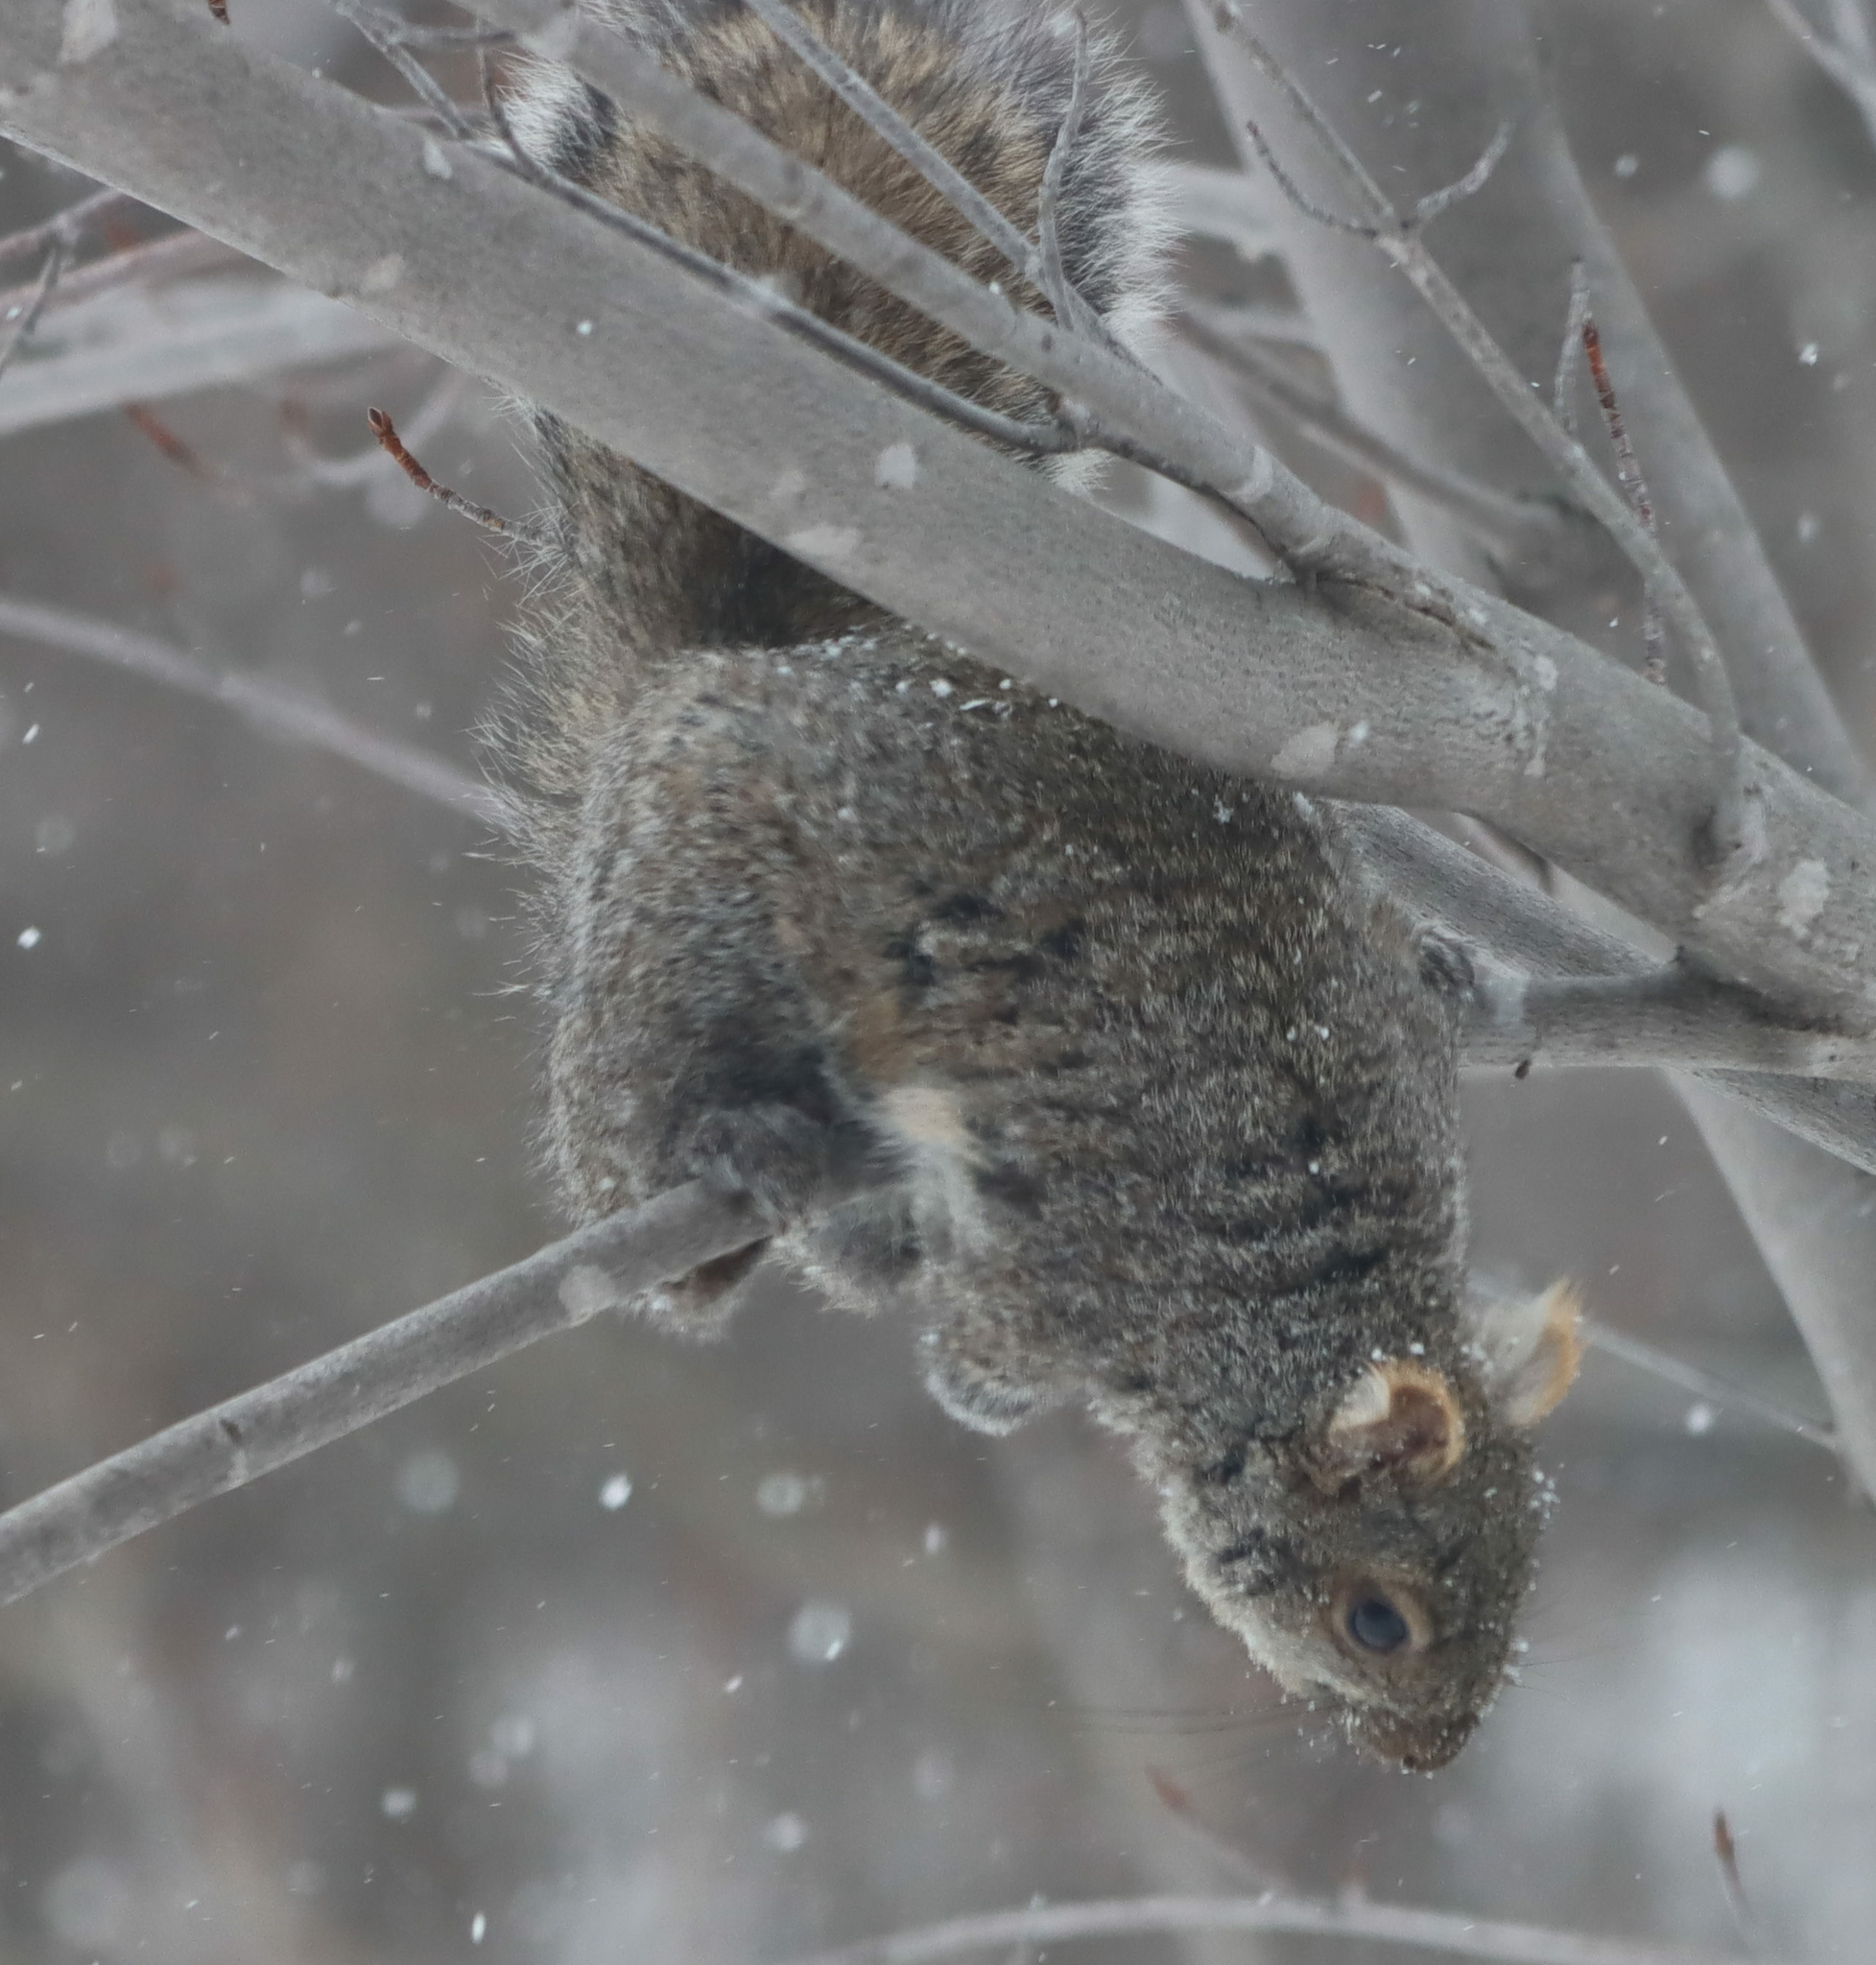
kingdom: Animalia
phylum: Chordata
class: Mammalia
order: Rodentia
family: Sciuridae
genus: Sciurus
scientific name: Sciurus carolinensis
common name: Eastern gray squirrel
